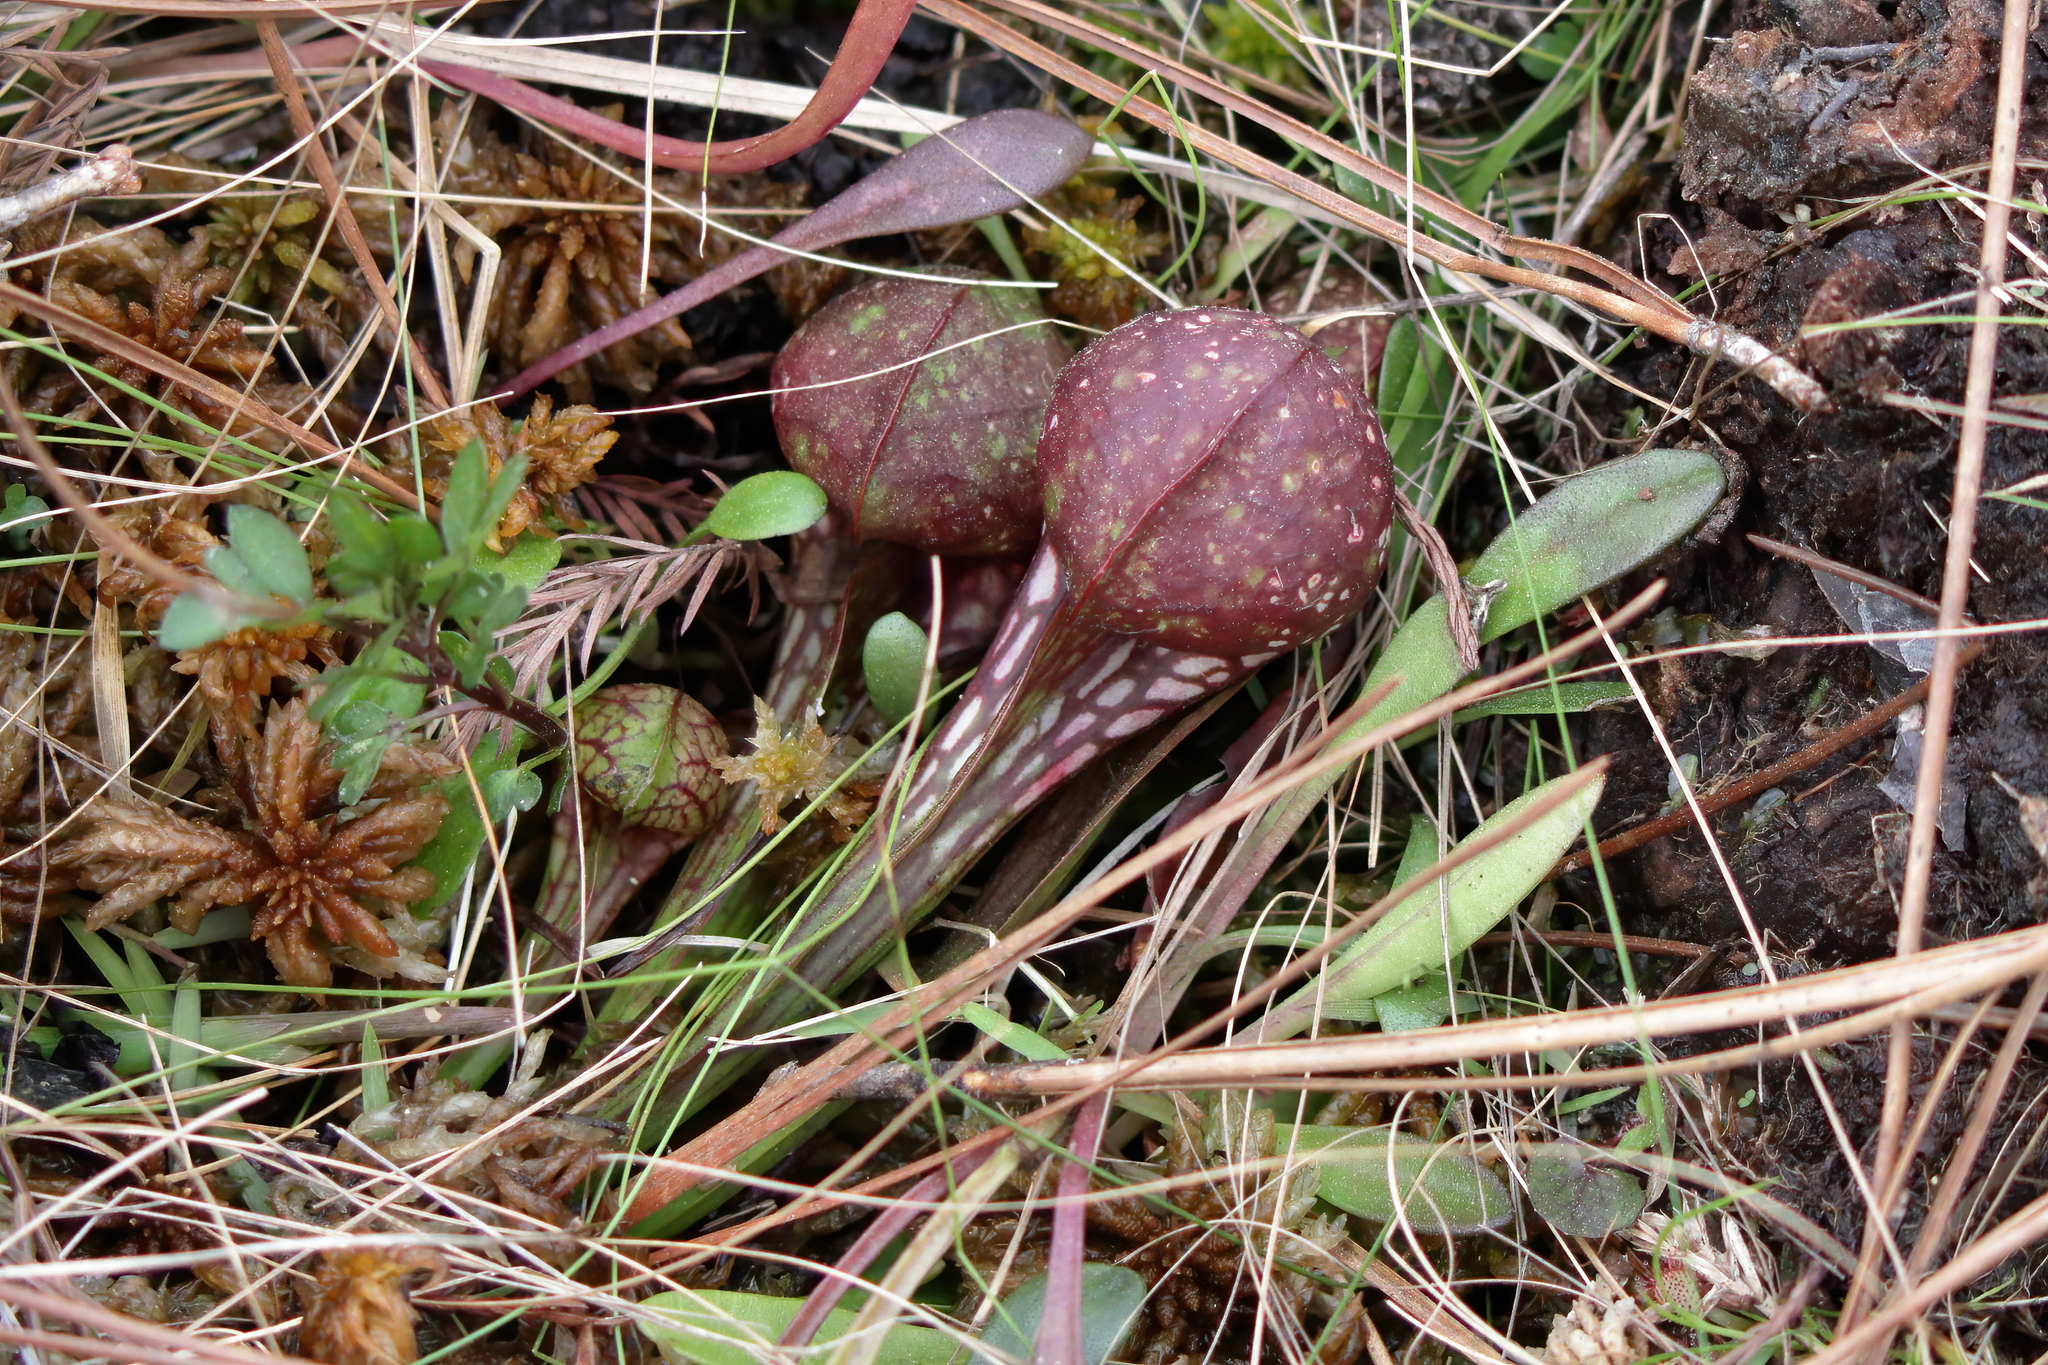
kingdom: Plantae
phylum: Tracheophyta
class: Magnoliopsida
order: Ericales
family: Sarraceniaceae
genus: Sarracenia
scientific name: Sarracenia psittacina
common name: Parrot pitcherplant
